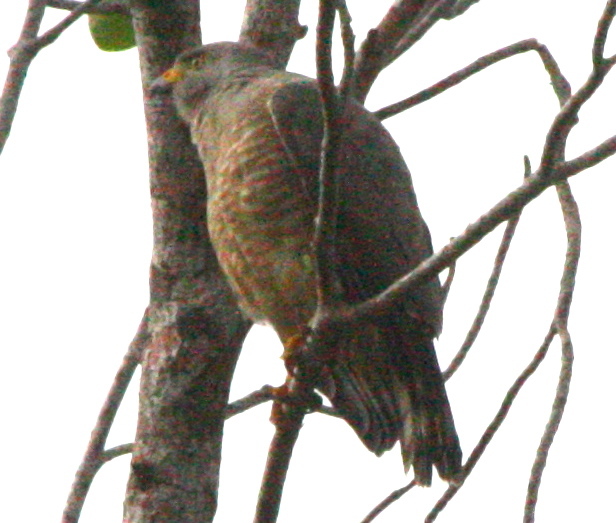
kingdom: Animalia
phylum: Chordata
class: Aves
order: Accipitriformes
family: Accipitridae
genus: Rupornis
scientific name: Rupornis magnirostris
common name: Roadside hawk
